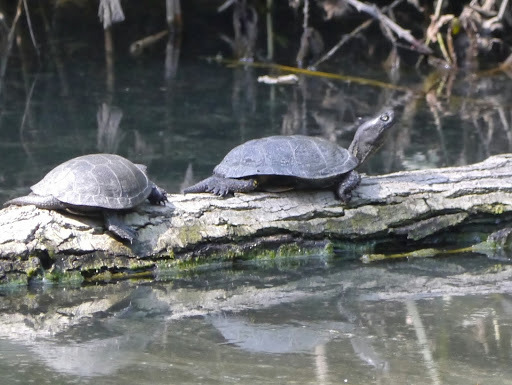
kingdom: Animalia
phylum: Chordata
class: Testudines
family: Emydidae
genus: Emys
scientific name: Emys orbicularis
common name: European pond turtle
